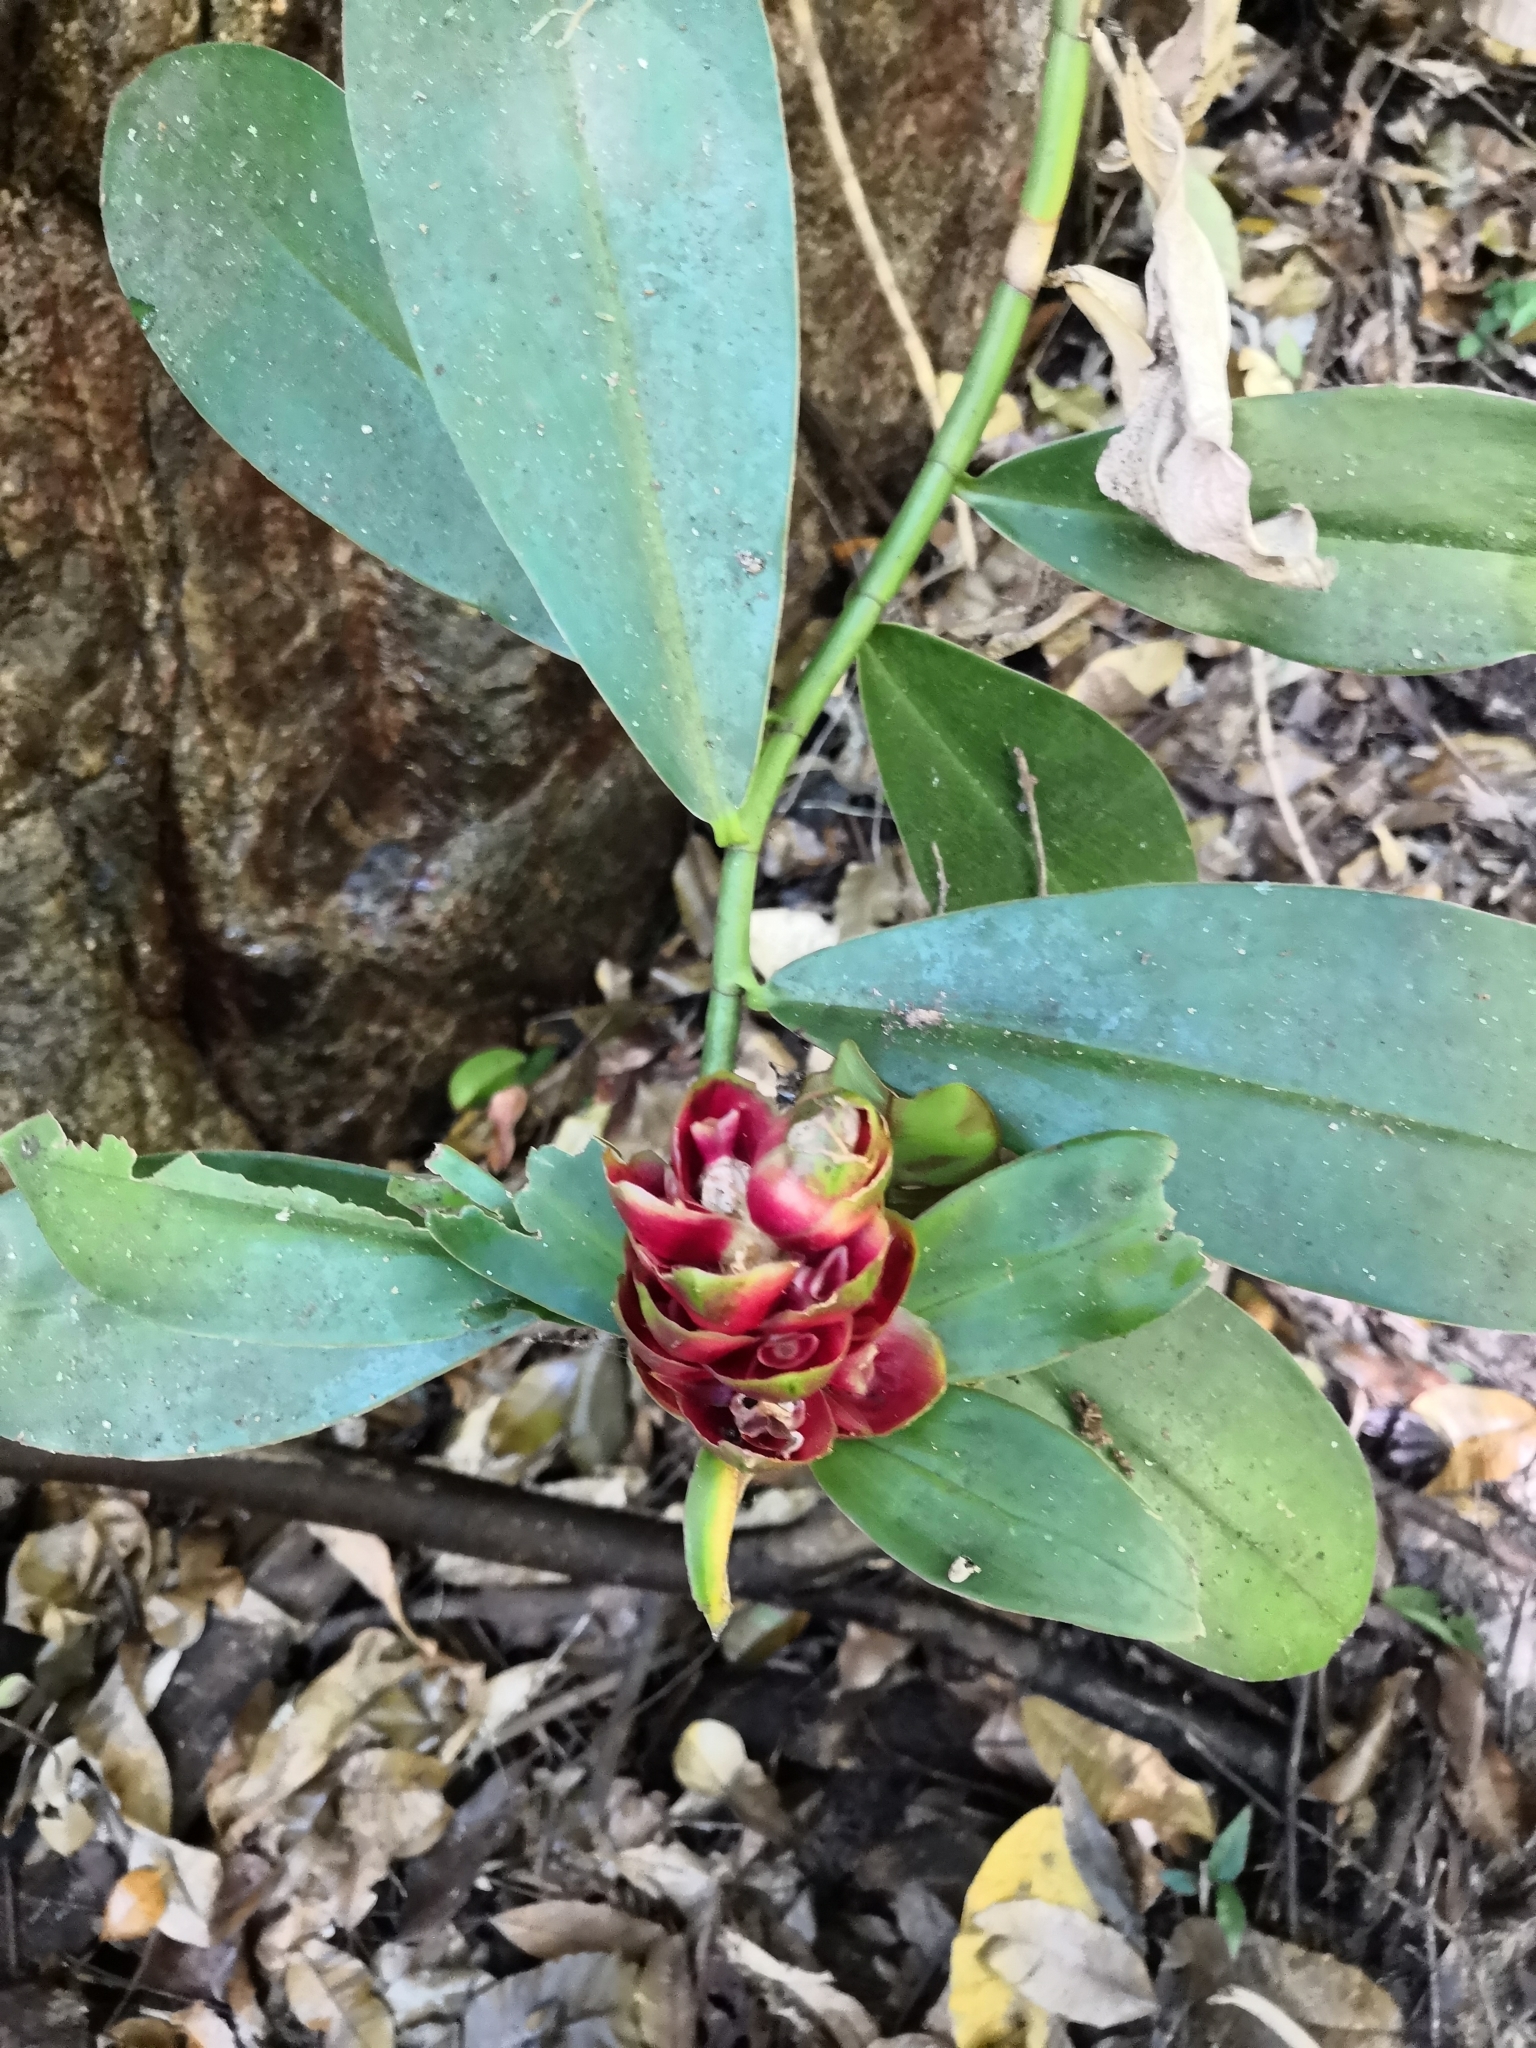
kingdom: Plantae
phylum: Tracheophyta
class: Liliopsida
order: Zingiberales
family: Costaceae
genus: Costus
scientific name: Costus pictus
